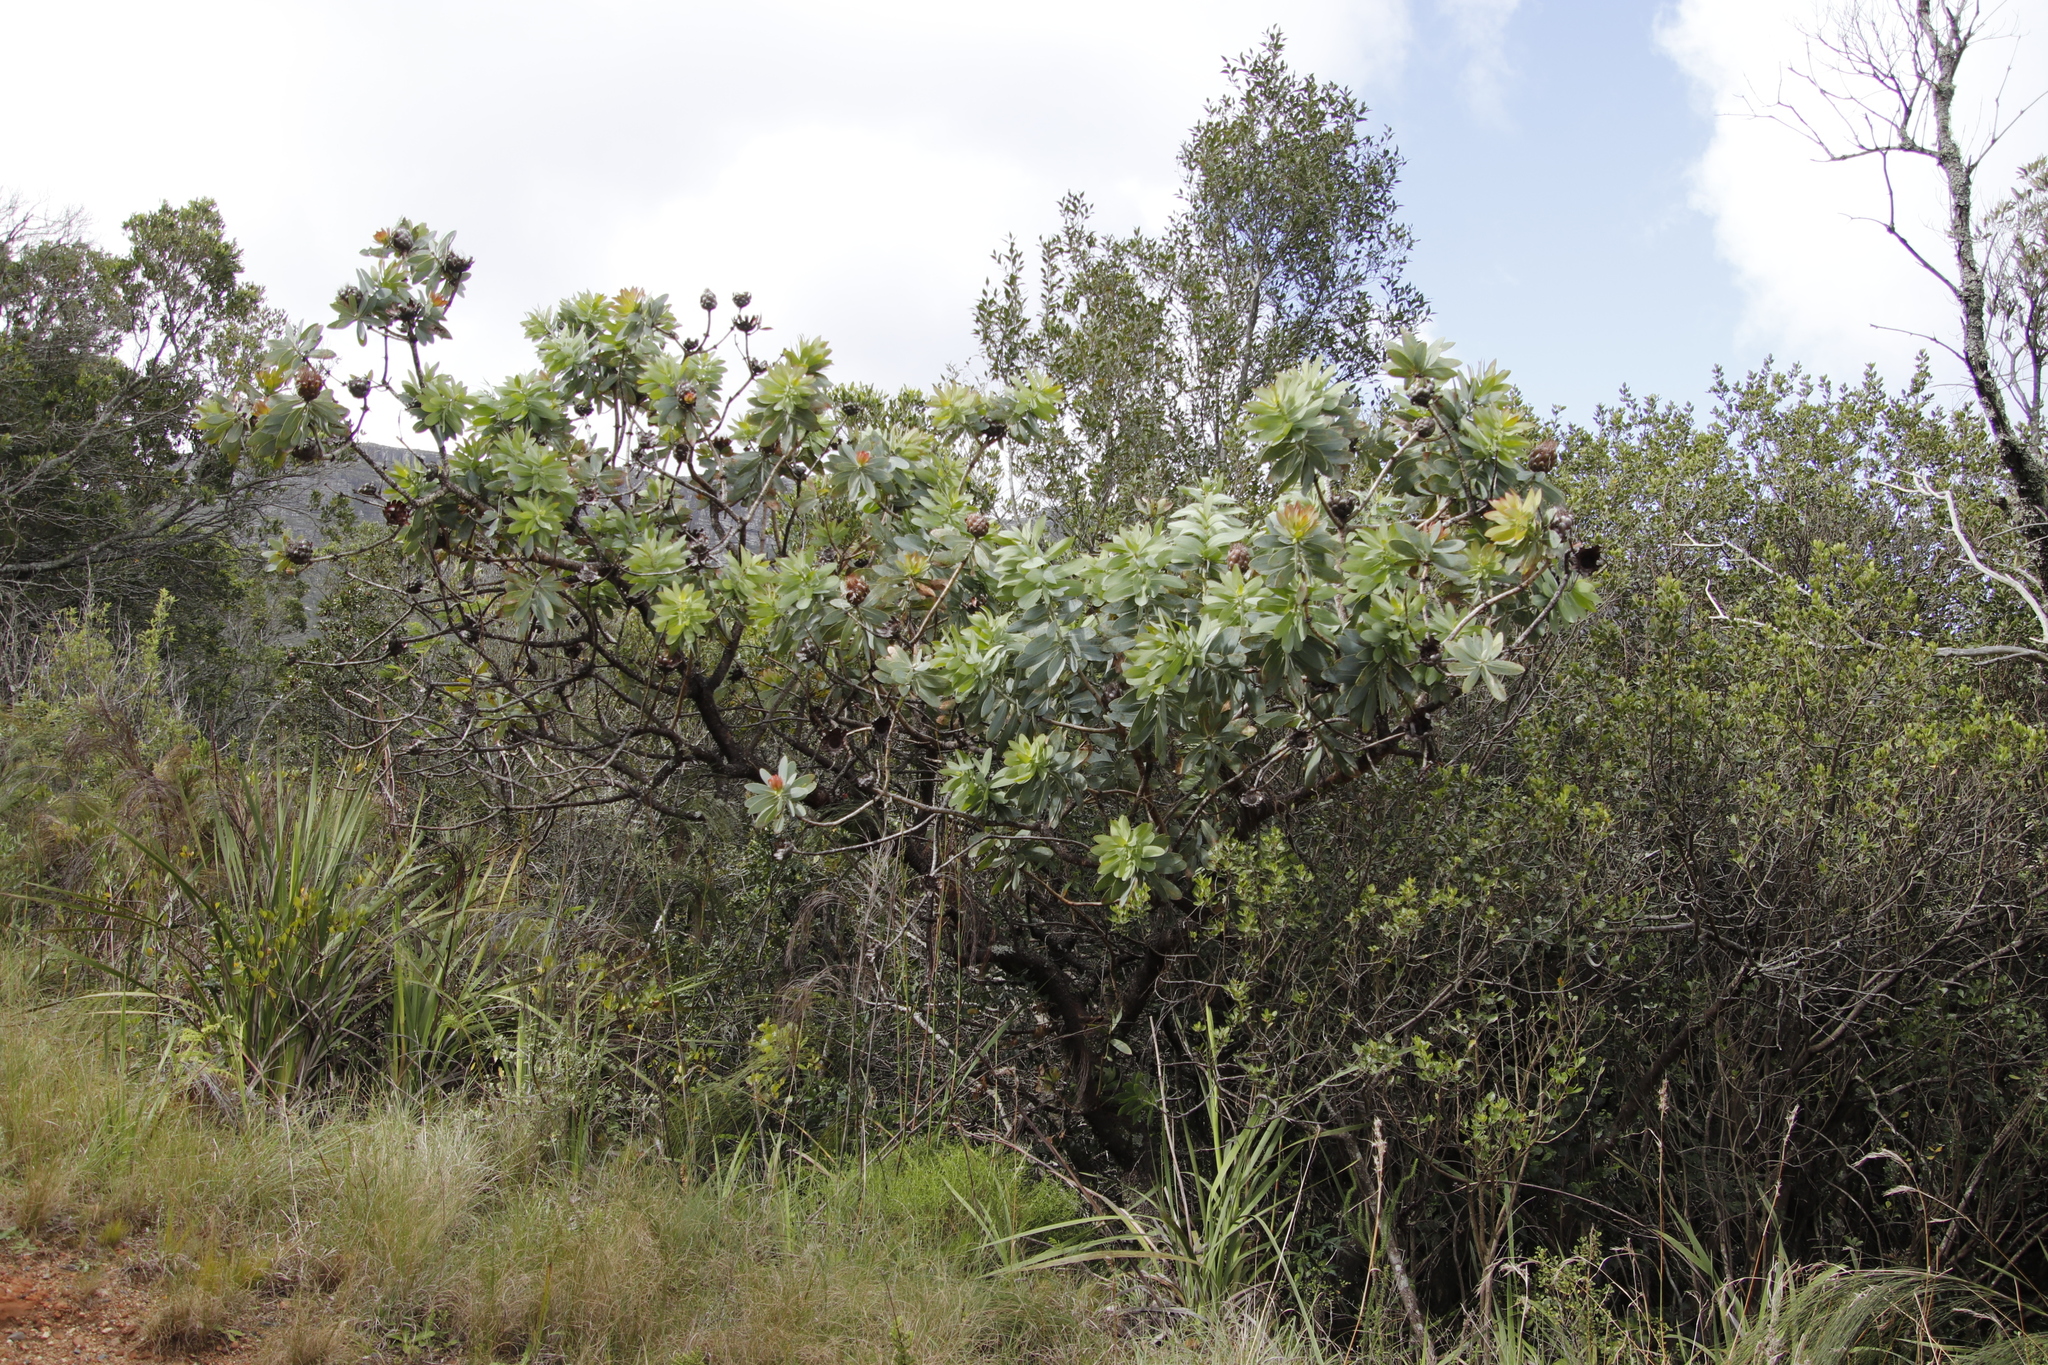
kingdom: Plantae
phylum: Tracheophyta
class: Magnoliopsida
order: Proteales
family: Proteaceae
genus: Protea
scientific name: Protea nitida
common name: Tree protea
